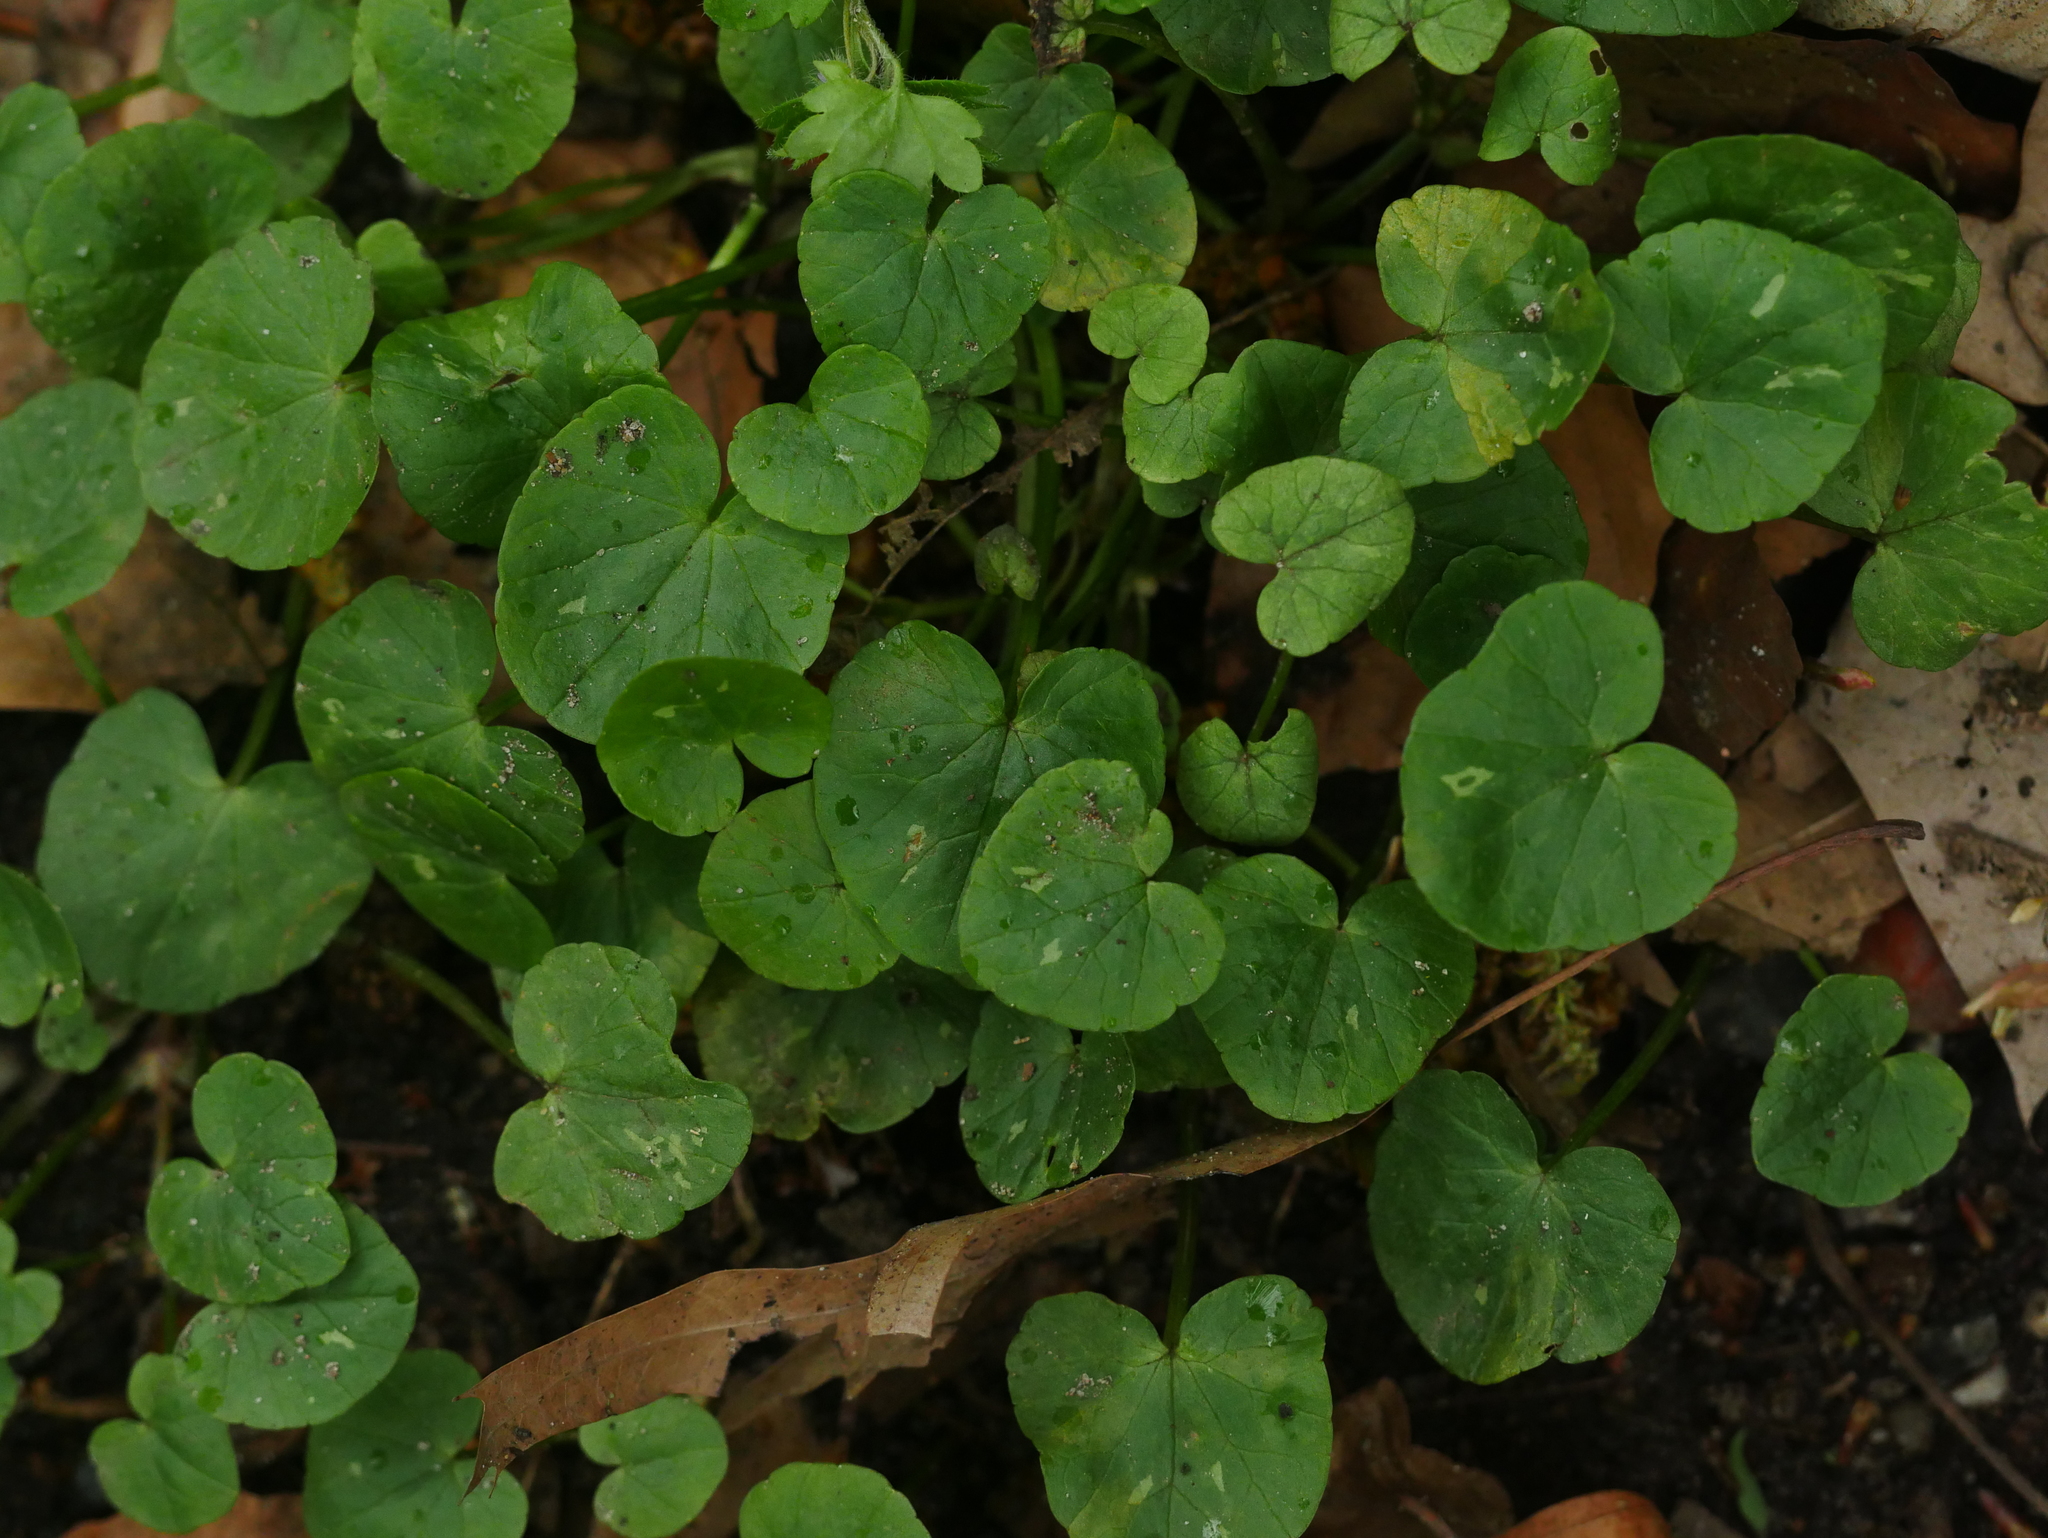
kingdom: Plantae
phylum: Tracheophyta
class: Magnoliopsida
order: Ranunculales
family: Ranunculaceae
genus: Ficaria
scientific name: Ficaria verna
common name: Lesser celandine
